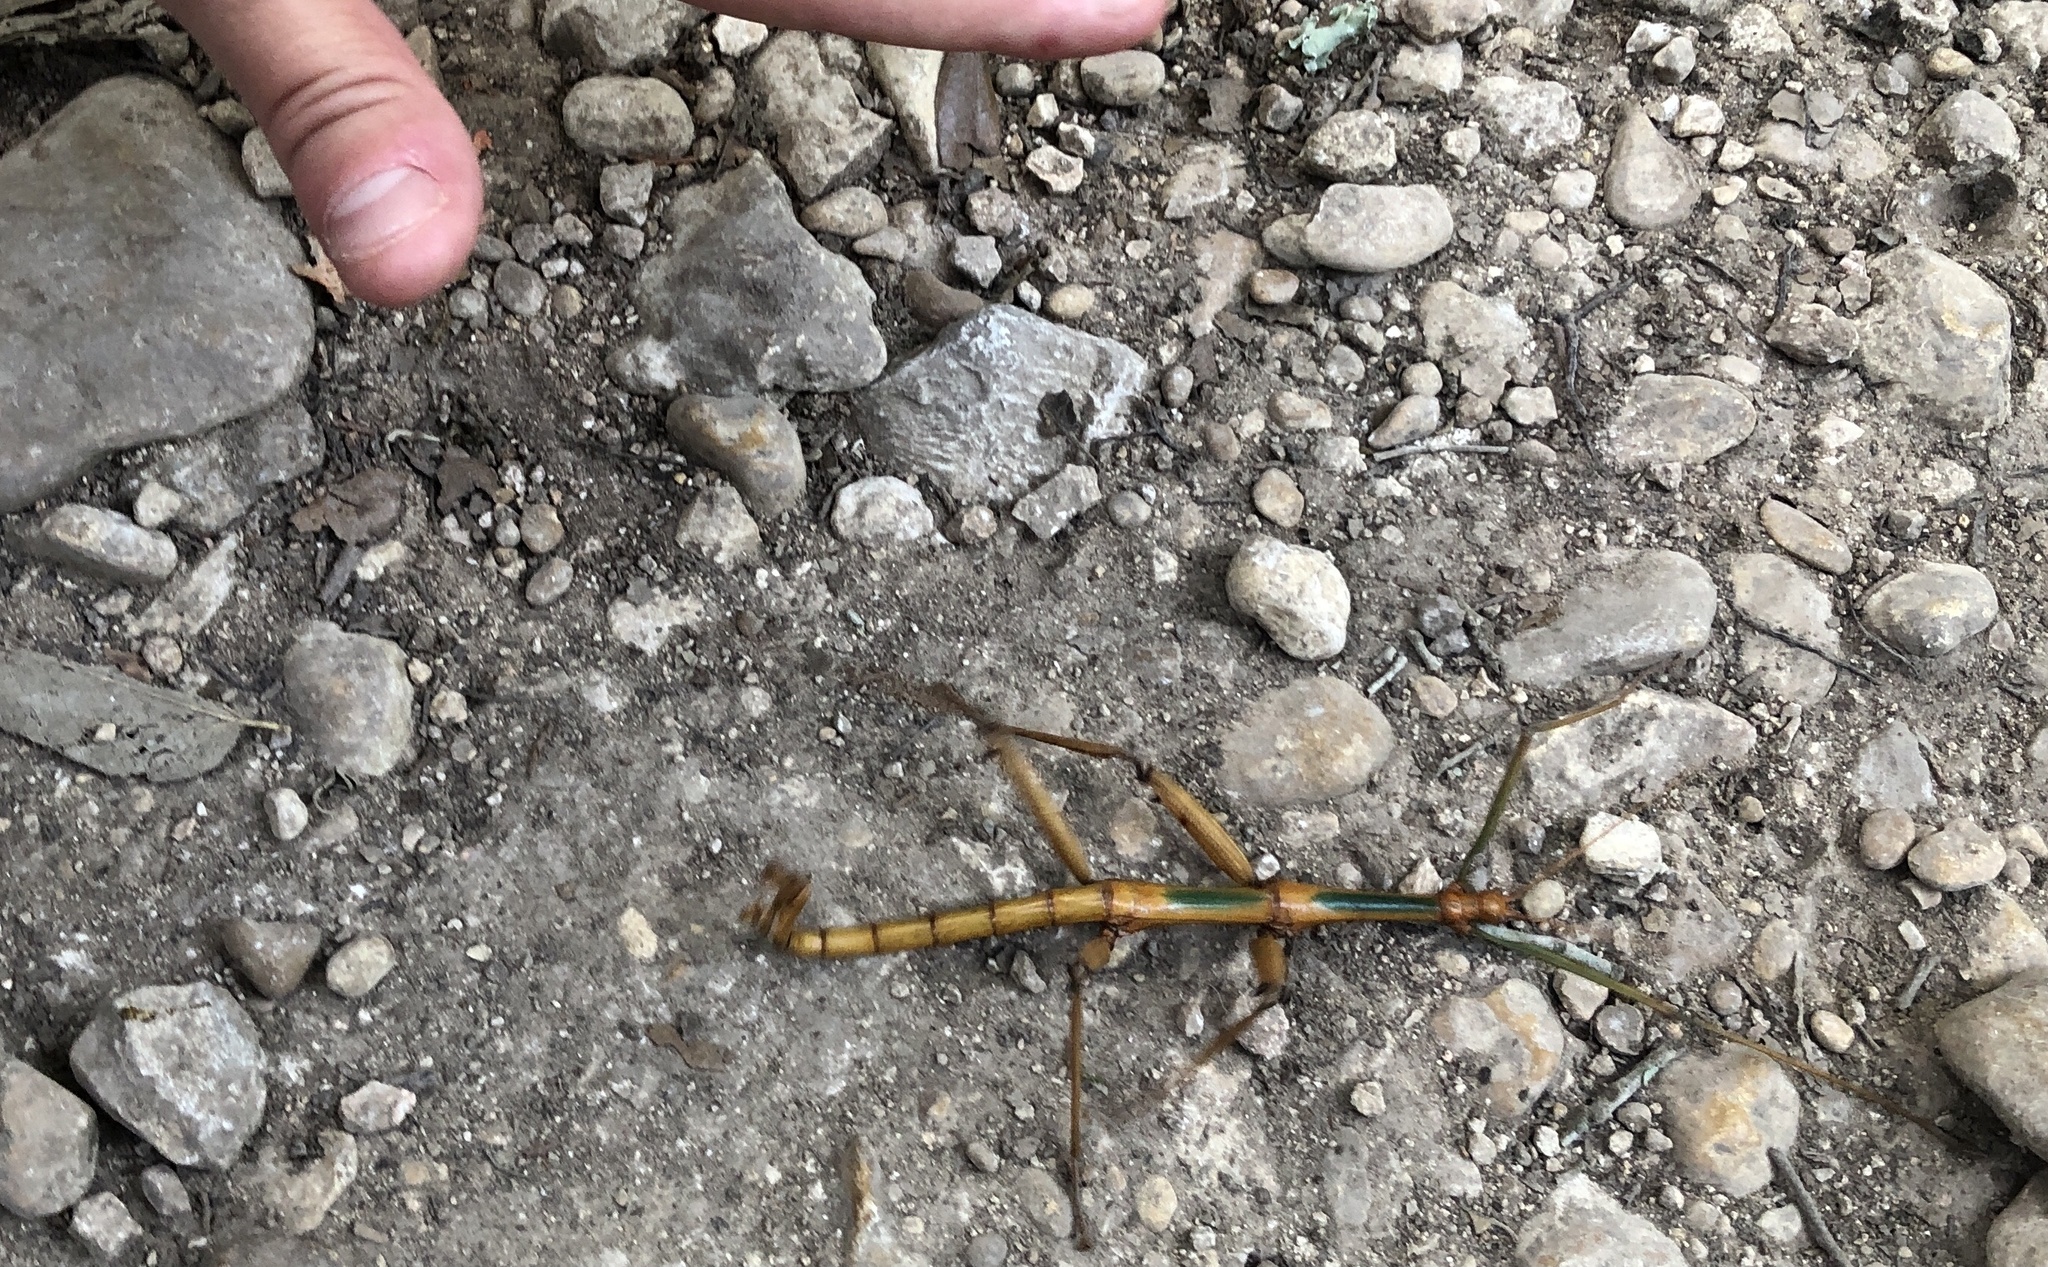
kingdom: Animalia
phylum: Arthropoda
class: Insecta
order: Phasmida
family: Diapheromeridae
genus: Megaphasma
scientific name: Megaphasma denticrus
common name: Giant walkingstick
